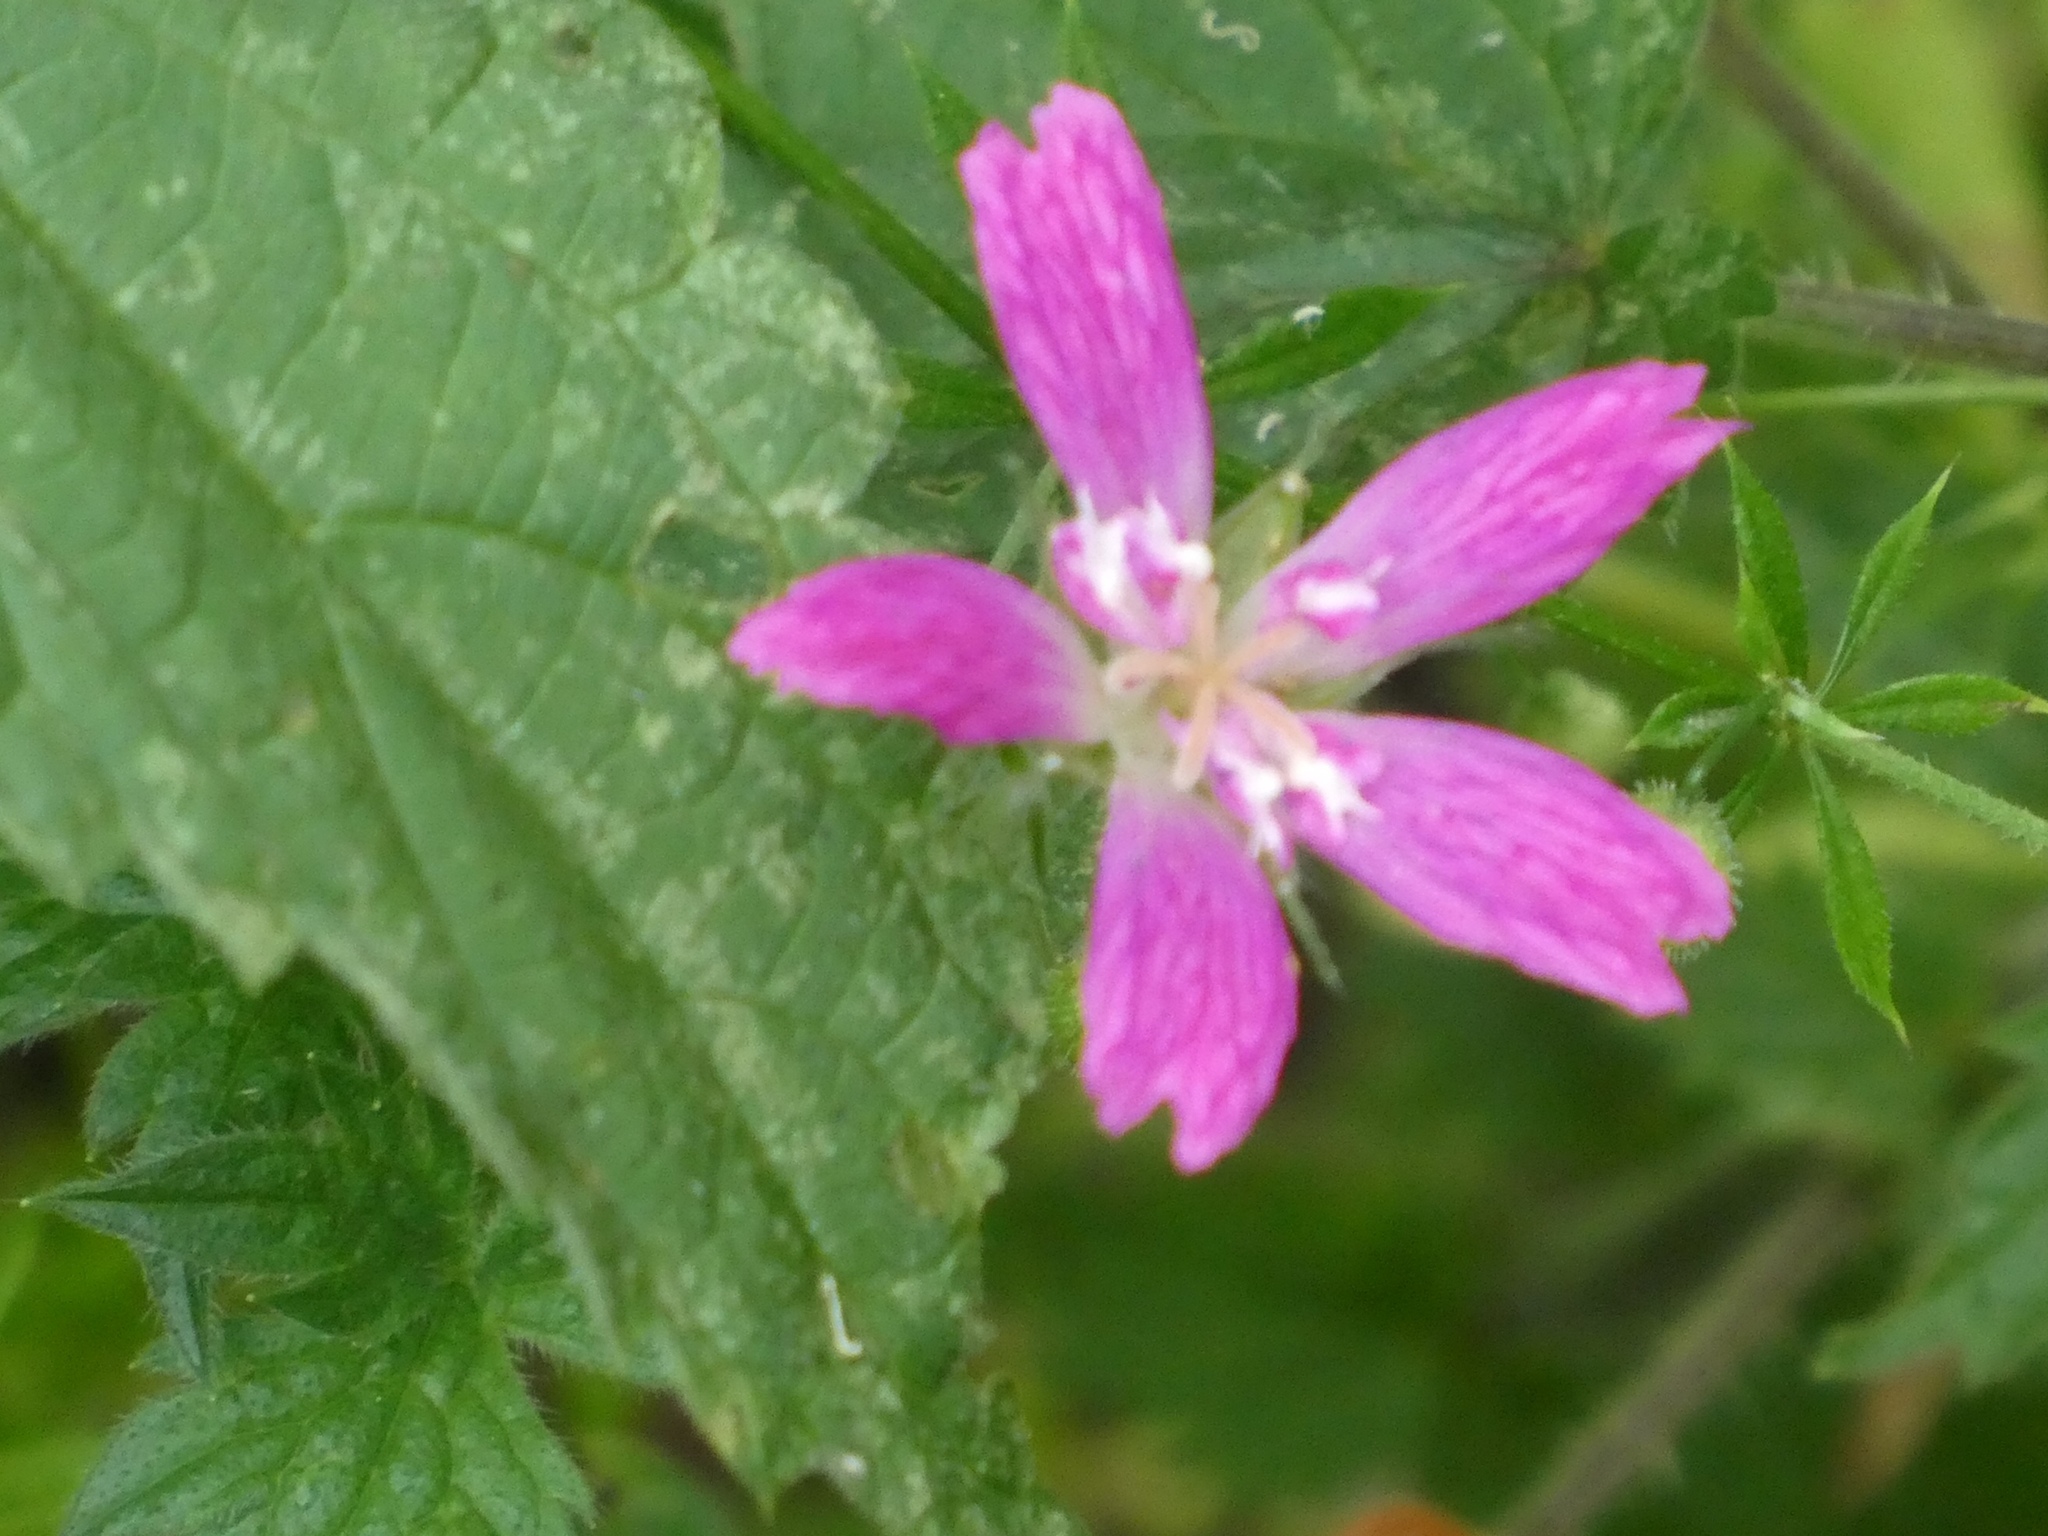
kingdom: Plantae
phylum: Tracheophyta
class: Magnoliopsida
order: Geraniales
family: Geraniaceae
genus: Geranium
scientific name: Geranium oxonianum
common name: Druce's crane's-bill
